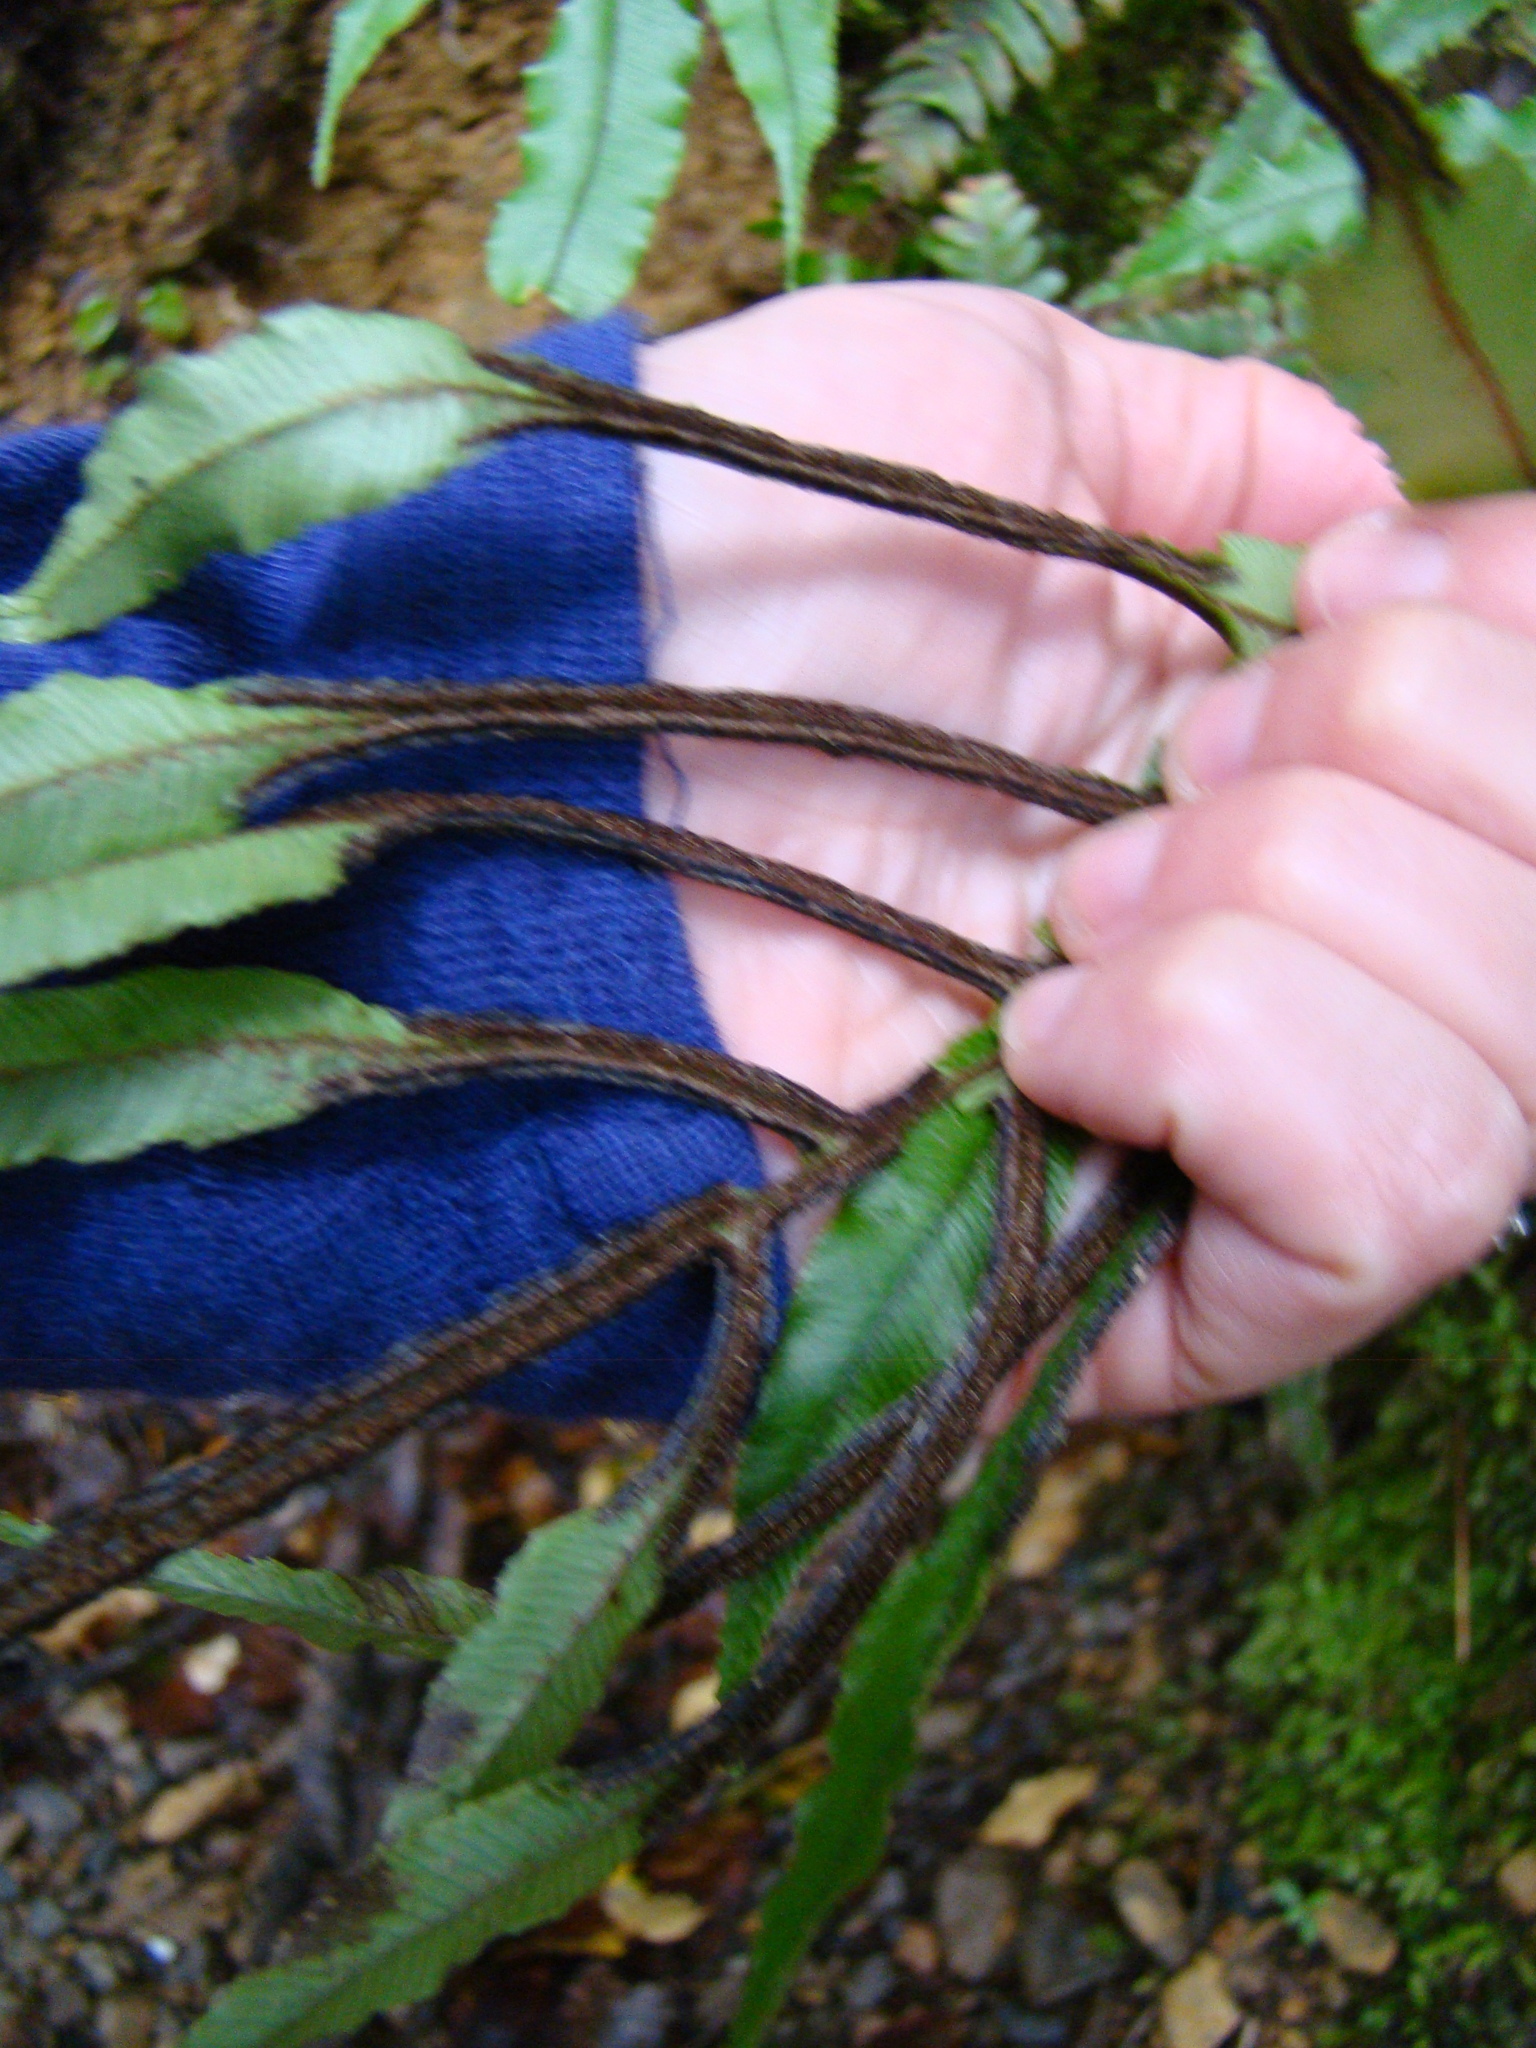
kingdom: Plantae
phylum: Tracheophyta
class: Polypodiopsida
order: Polypodiales
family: Blechnaceae
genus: Parablechnum
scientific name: Parablechnum novae-zelandiae
